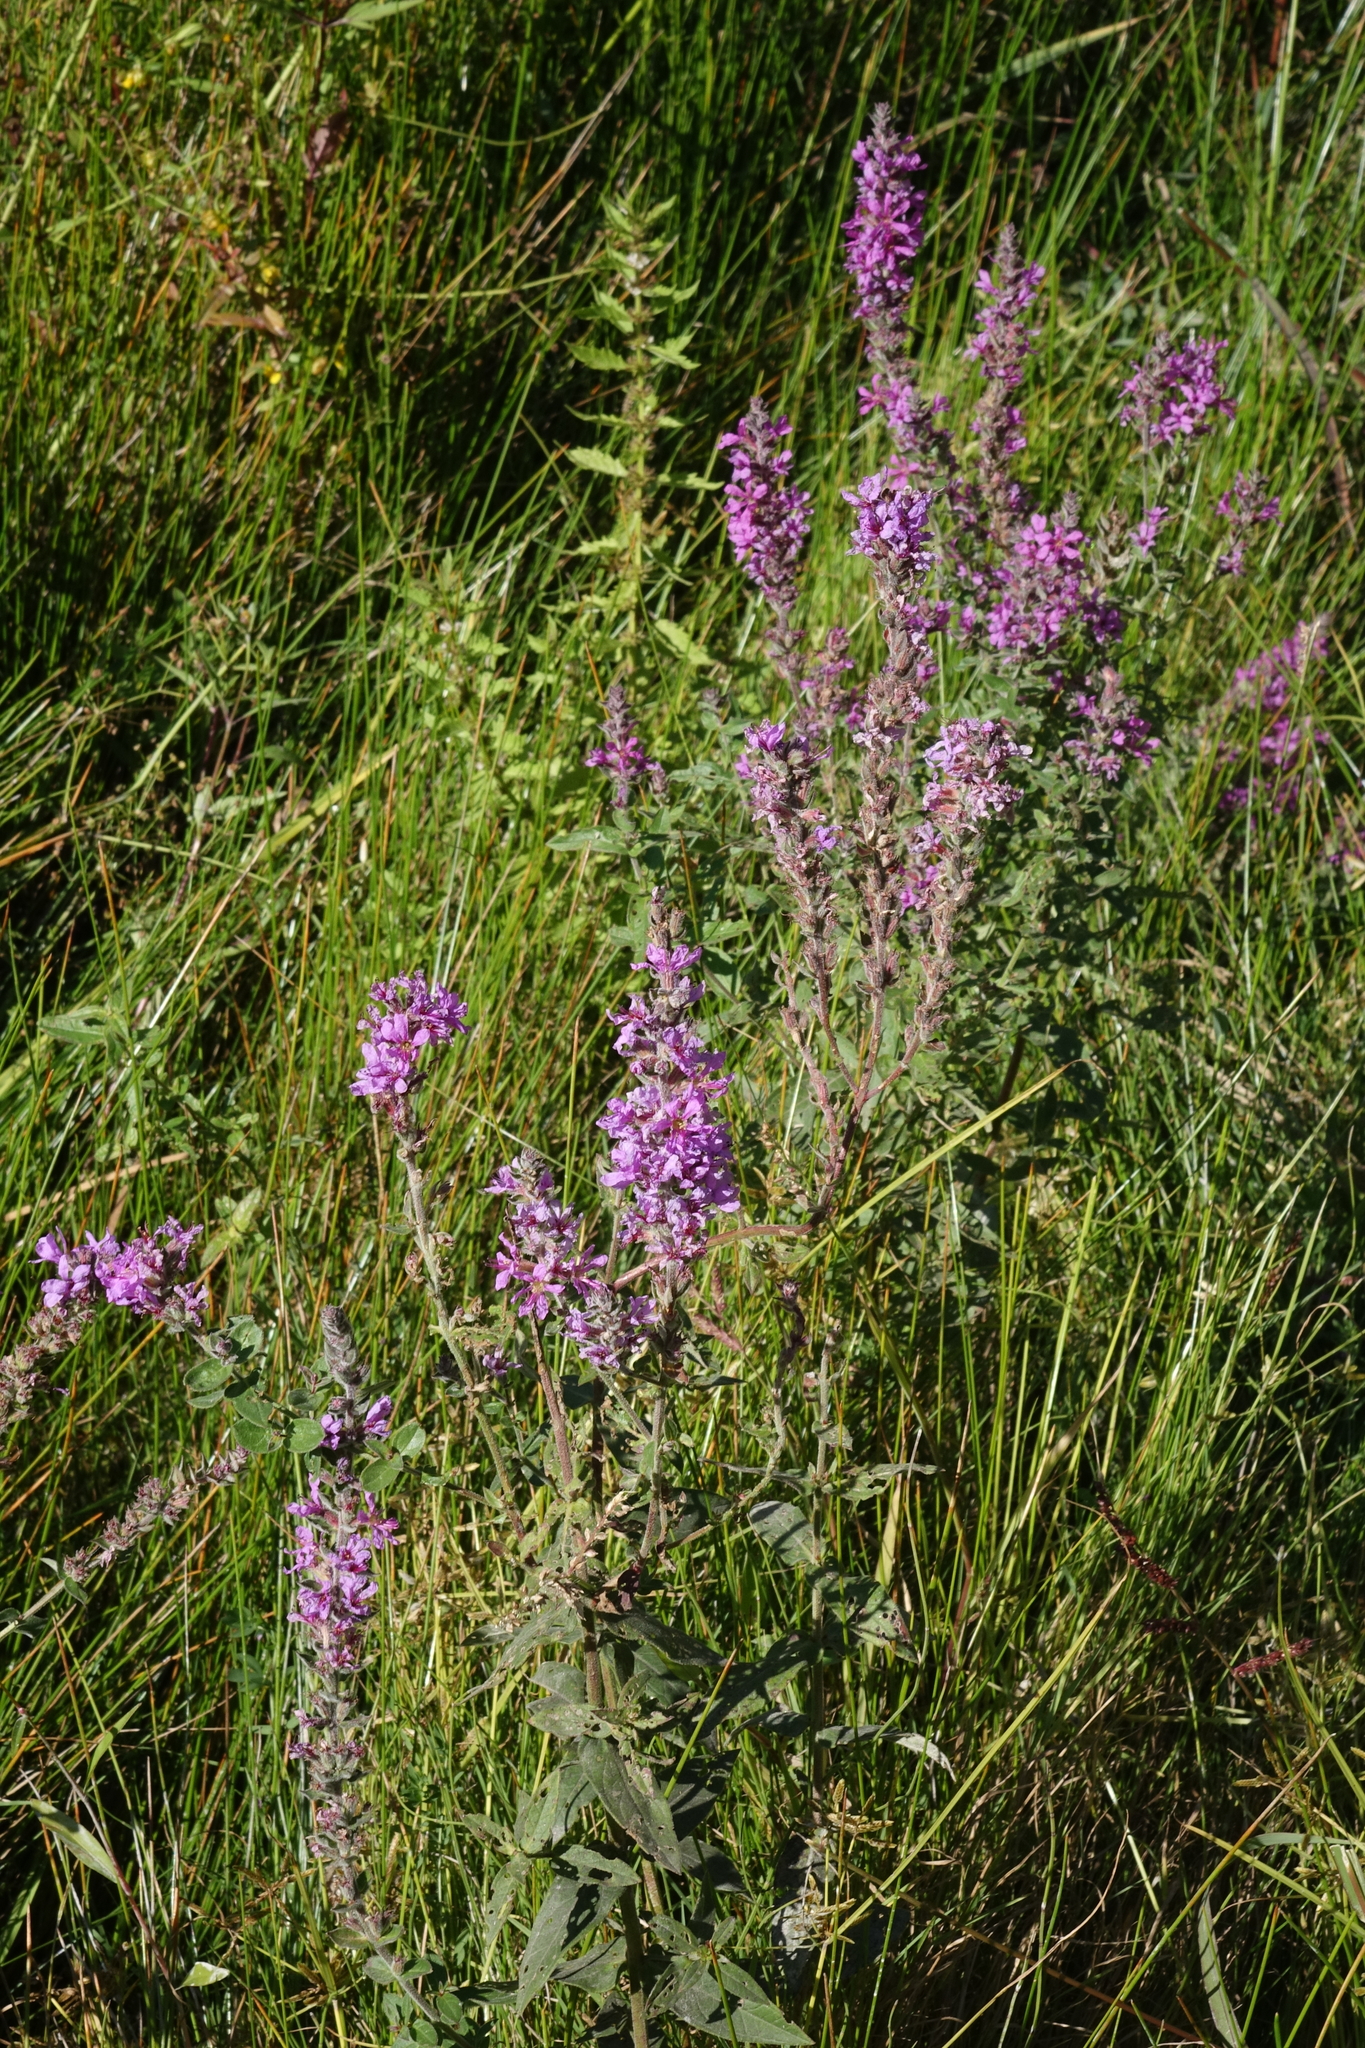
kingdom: Plantae
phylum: Tracheophyta
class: Magnoliopsida
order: Myrtales
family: Lythraceae
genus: Lythrum
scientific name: Lythrum salicaria
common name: Purple loosestrife
